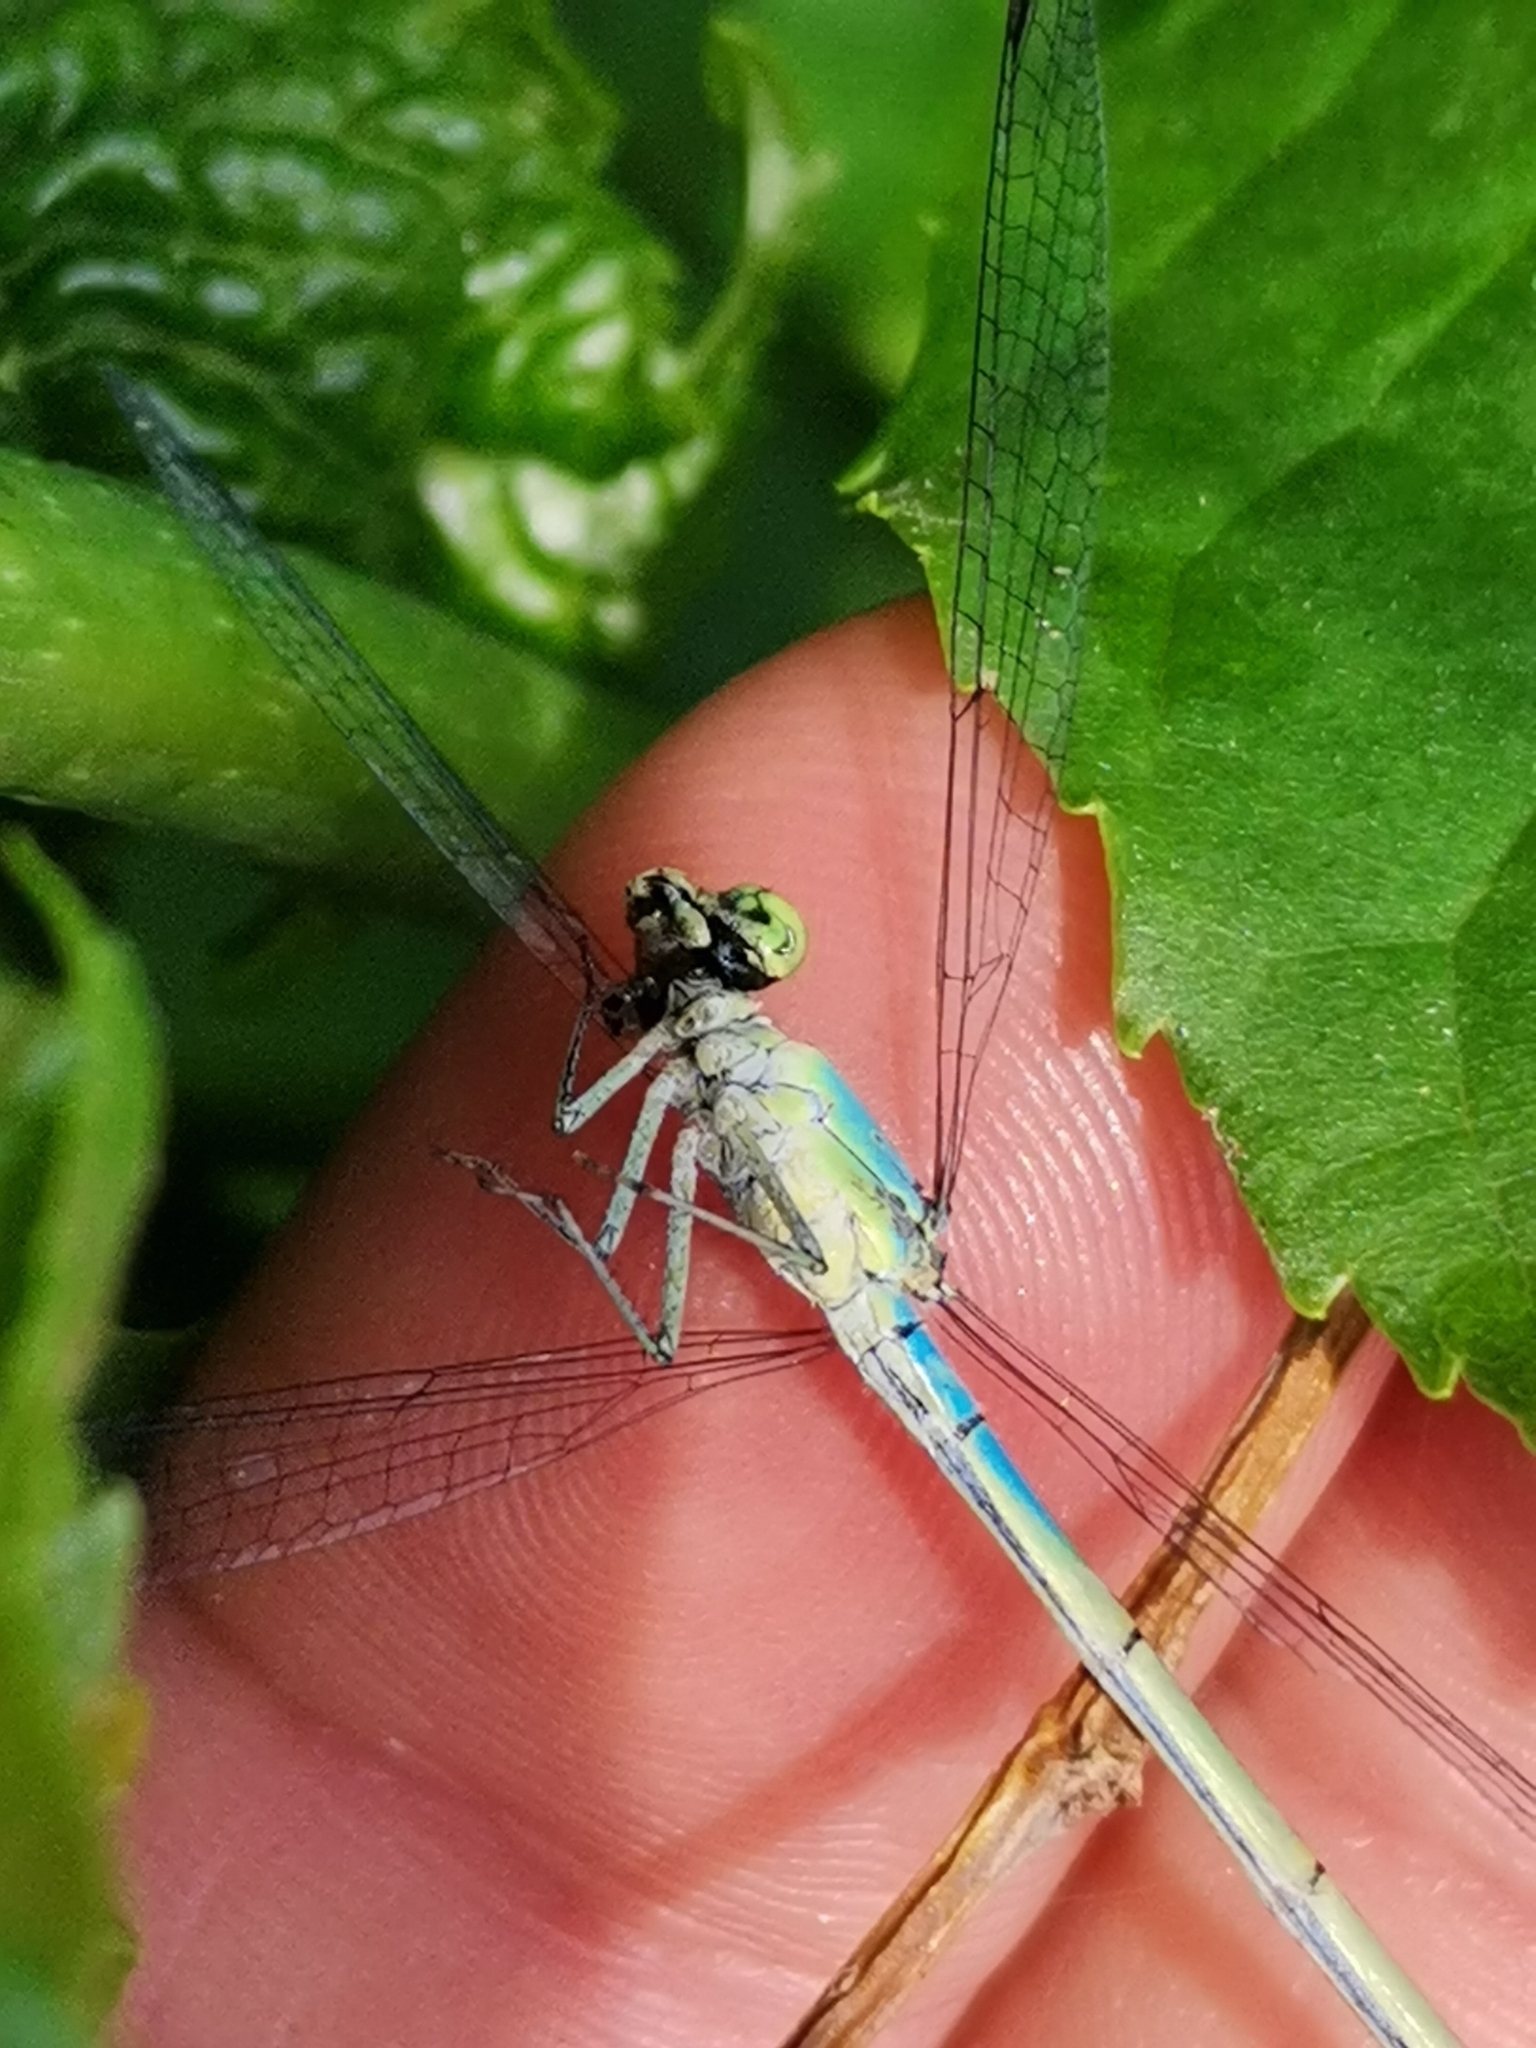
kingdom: Animalia
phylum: Arthropoda
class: Insecta
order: Odonata
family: Coenagrionidae
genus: Ischnura
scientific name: Ischnura pumilio
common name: Scarce blue-tailed damselfly
